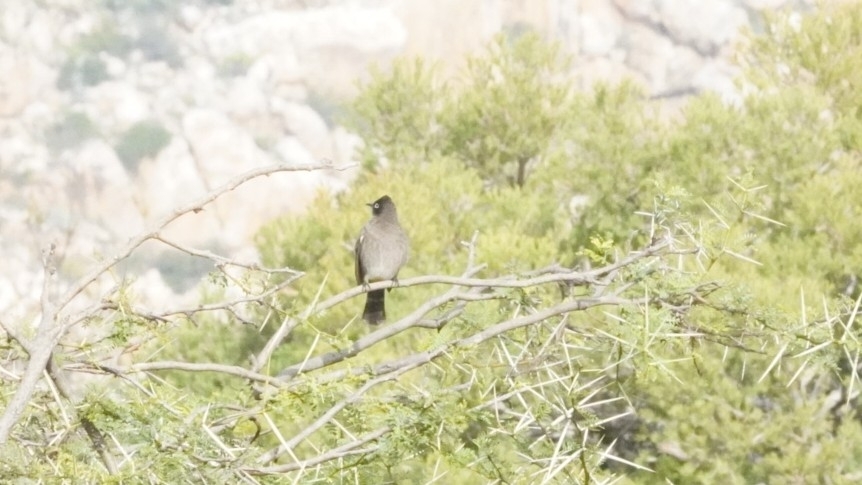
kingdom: Animalia
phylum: Chordata
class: Aves
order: Passeriformes
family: Pycnonotidae
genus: Pycnonotus
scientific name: Pycnonotus capensis
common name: Cape bulbul
